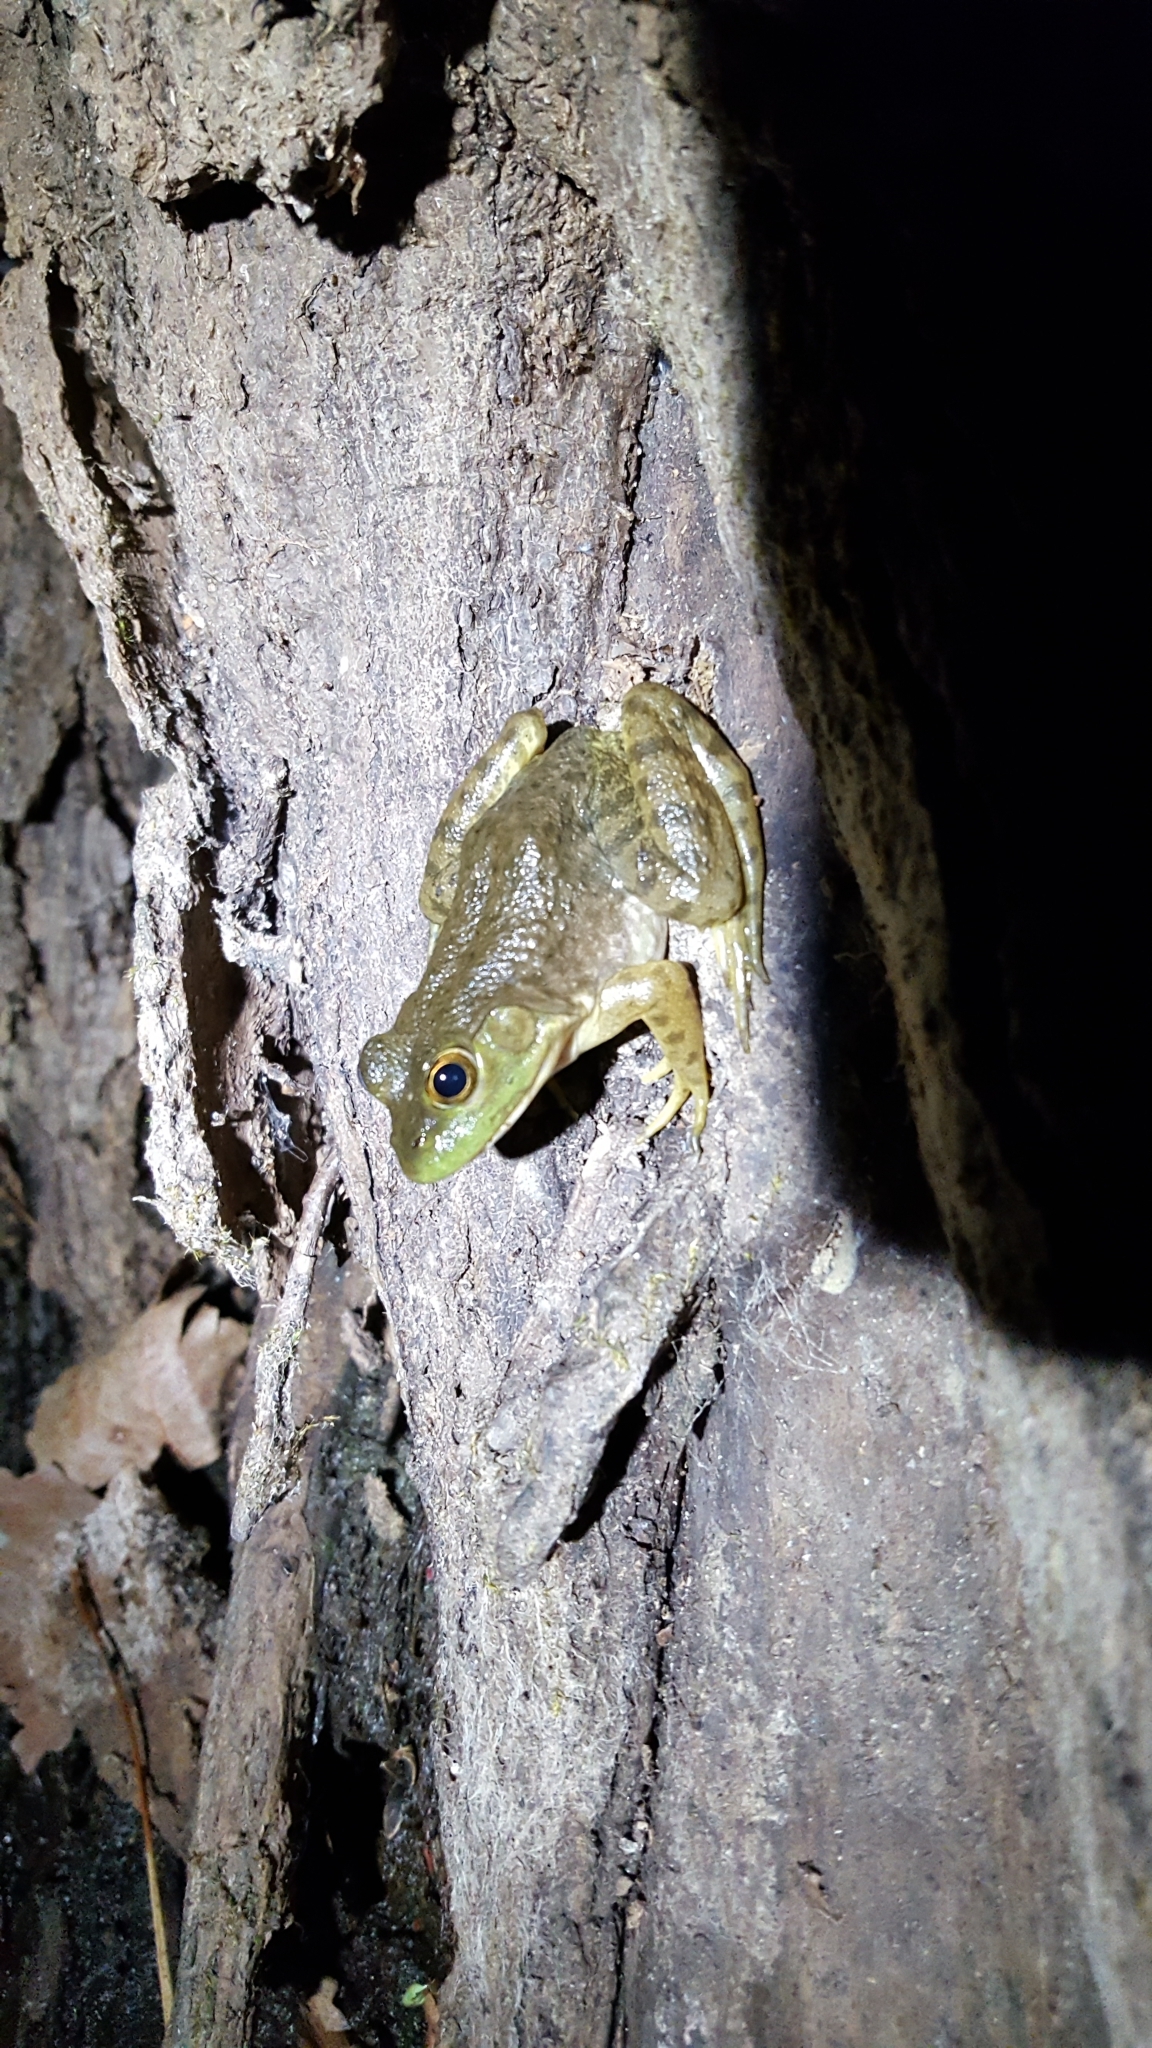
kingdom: Animalia
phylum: Chordata
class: Amphibia
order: Anura
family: Ranidae
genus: Lithobates
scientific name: Lithobates catesbeianus
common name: American bullfrog
